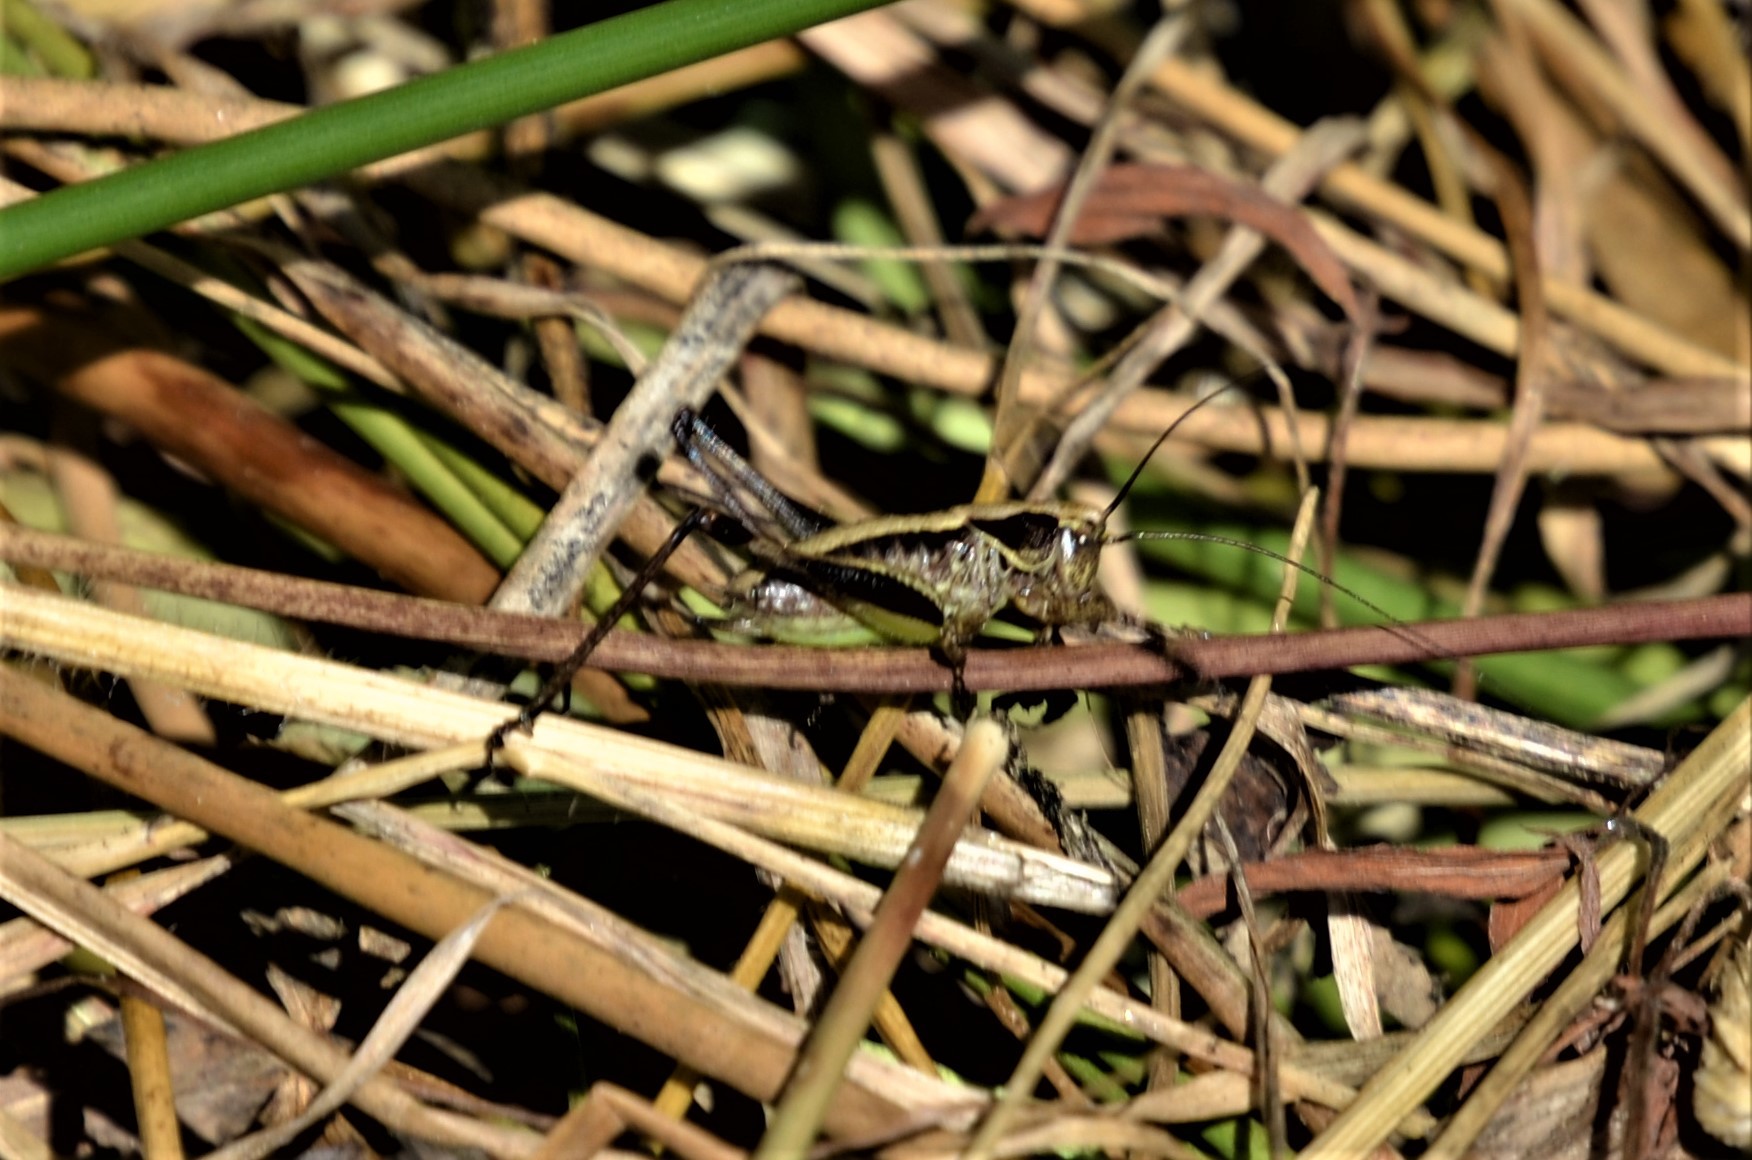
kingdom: Animalia
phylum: Arthropoda
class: Insecta
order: Orthoptera
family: Tettigoniidae
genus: Pholidoptera
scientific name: Pholidoptera griseoaptera
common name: Dark bush-cricket
